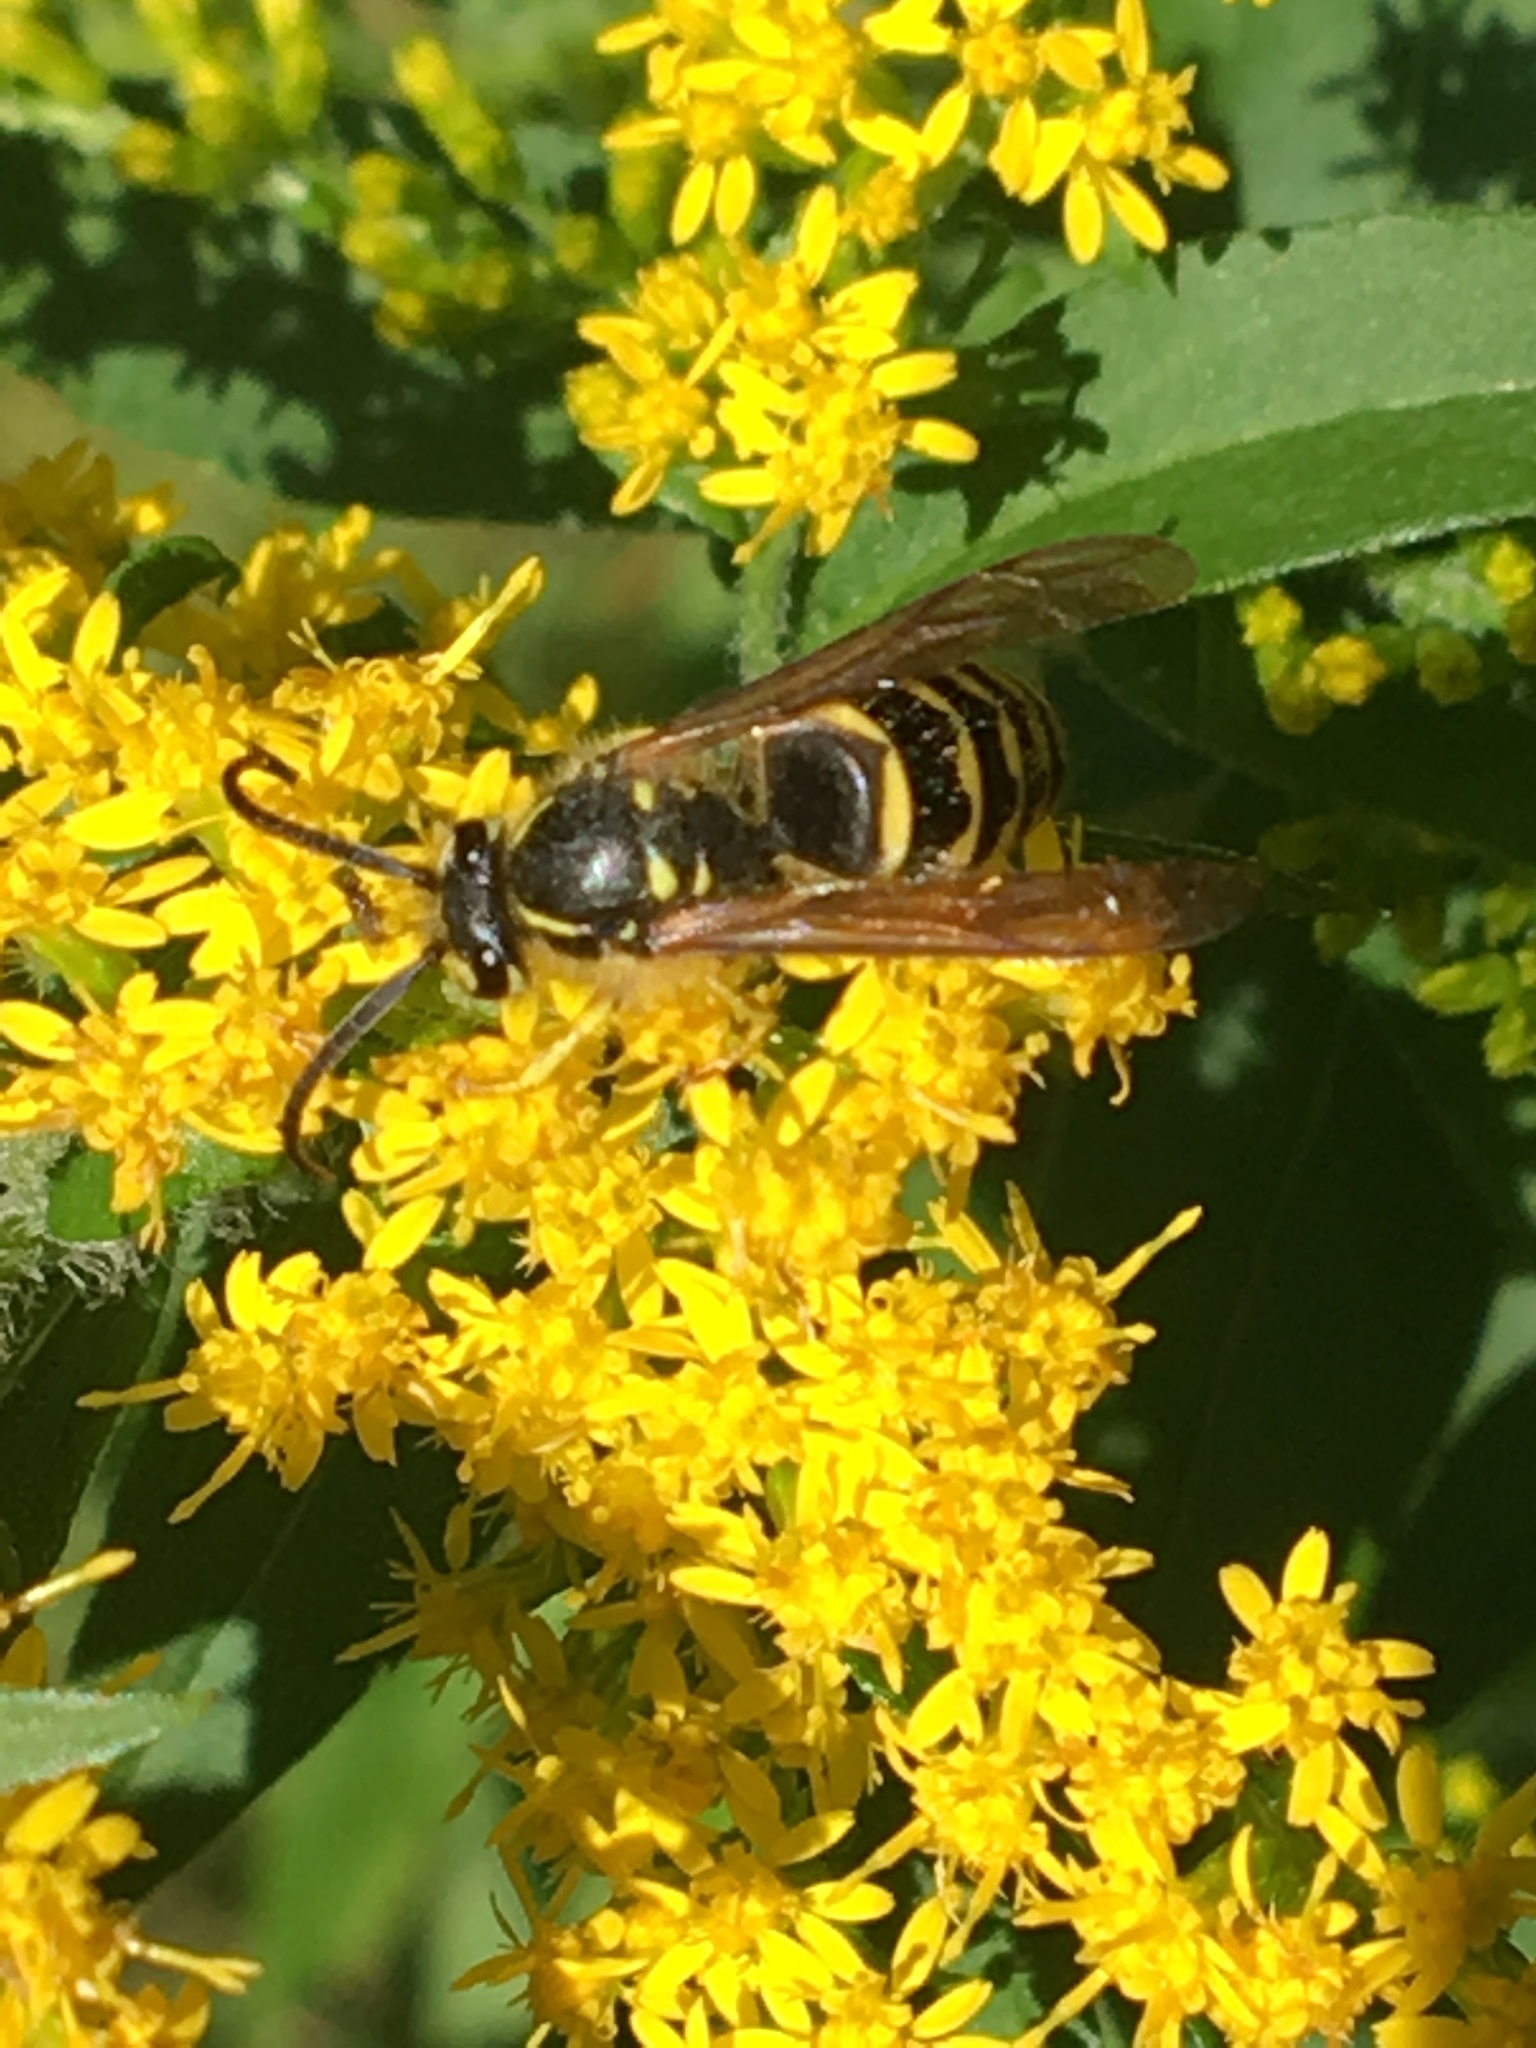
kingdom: Animalia
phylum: Arthropoda
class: Insecta
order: Hymenoptera
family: Vespidae
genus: Dolichovespula
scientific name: Dolichovespula arenaria
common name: Aerial yellowjacket
